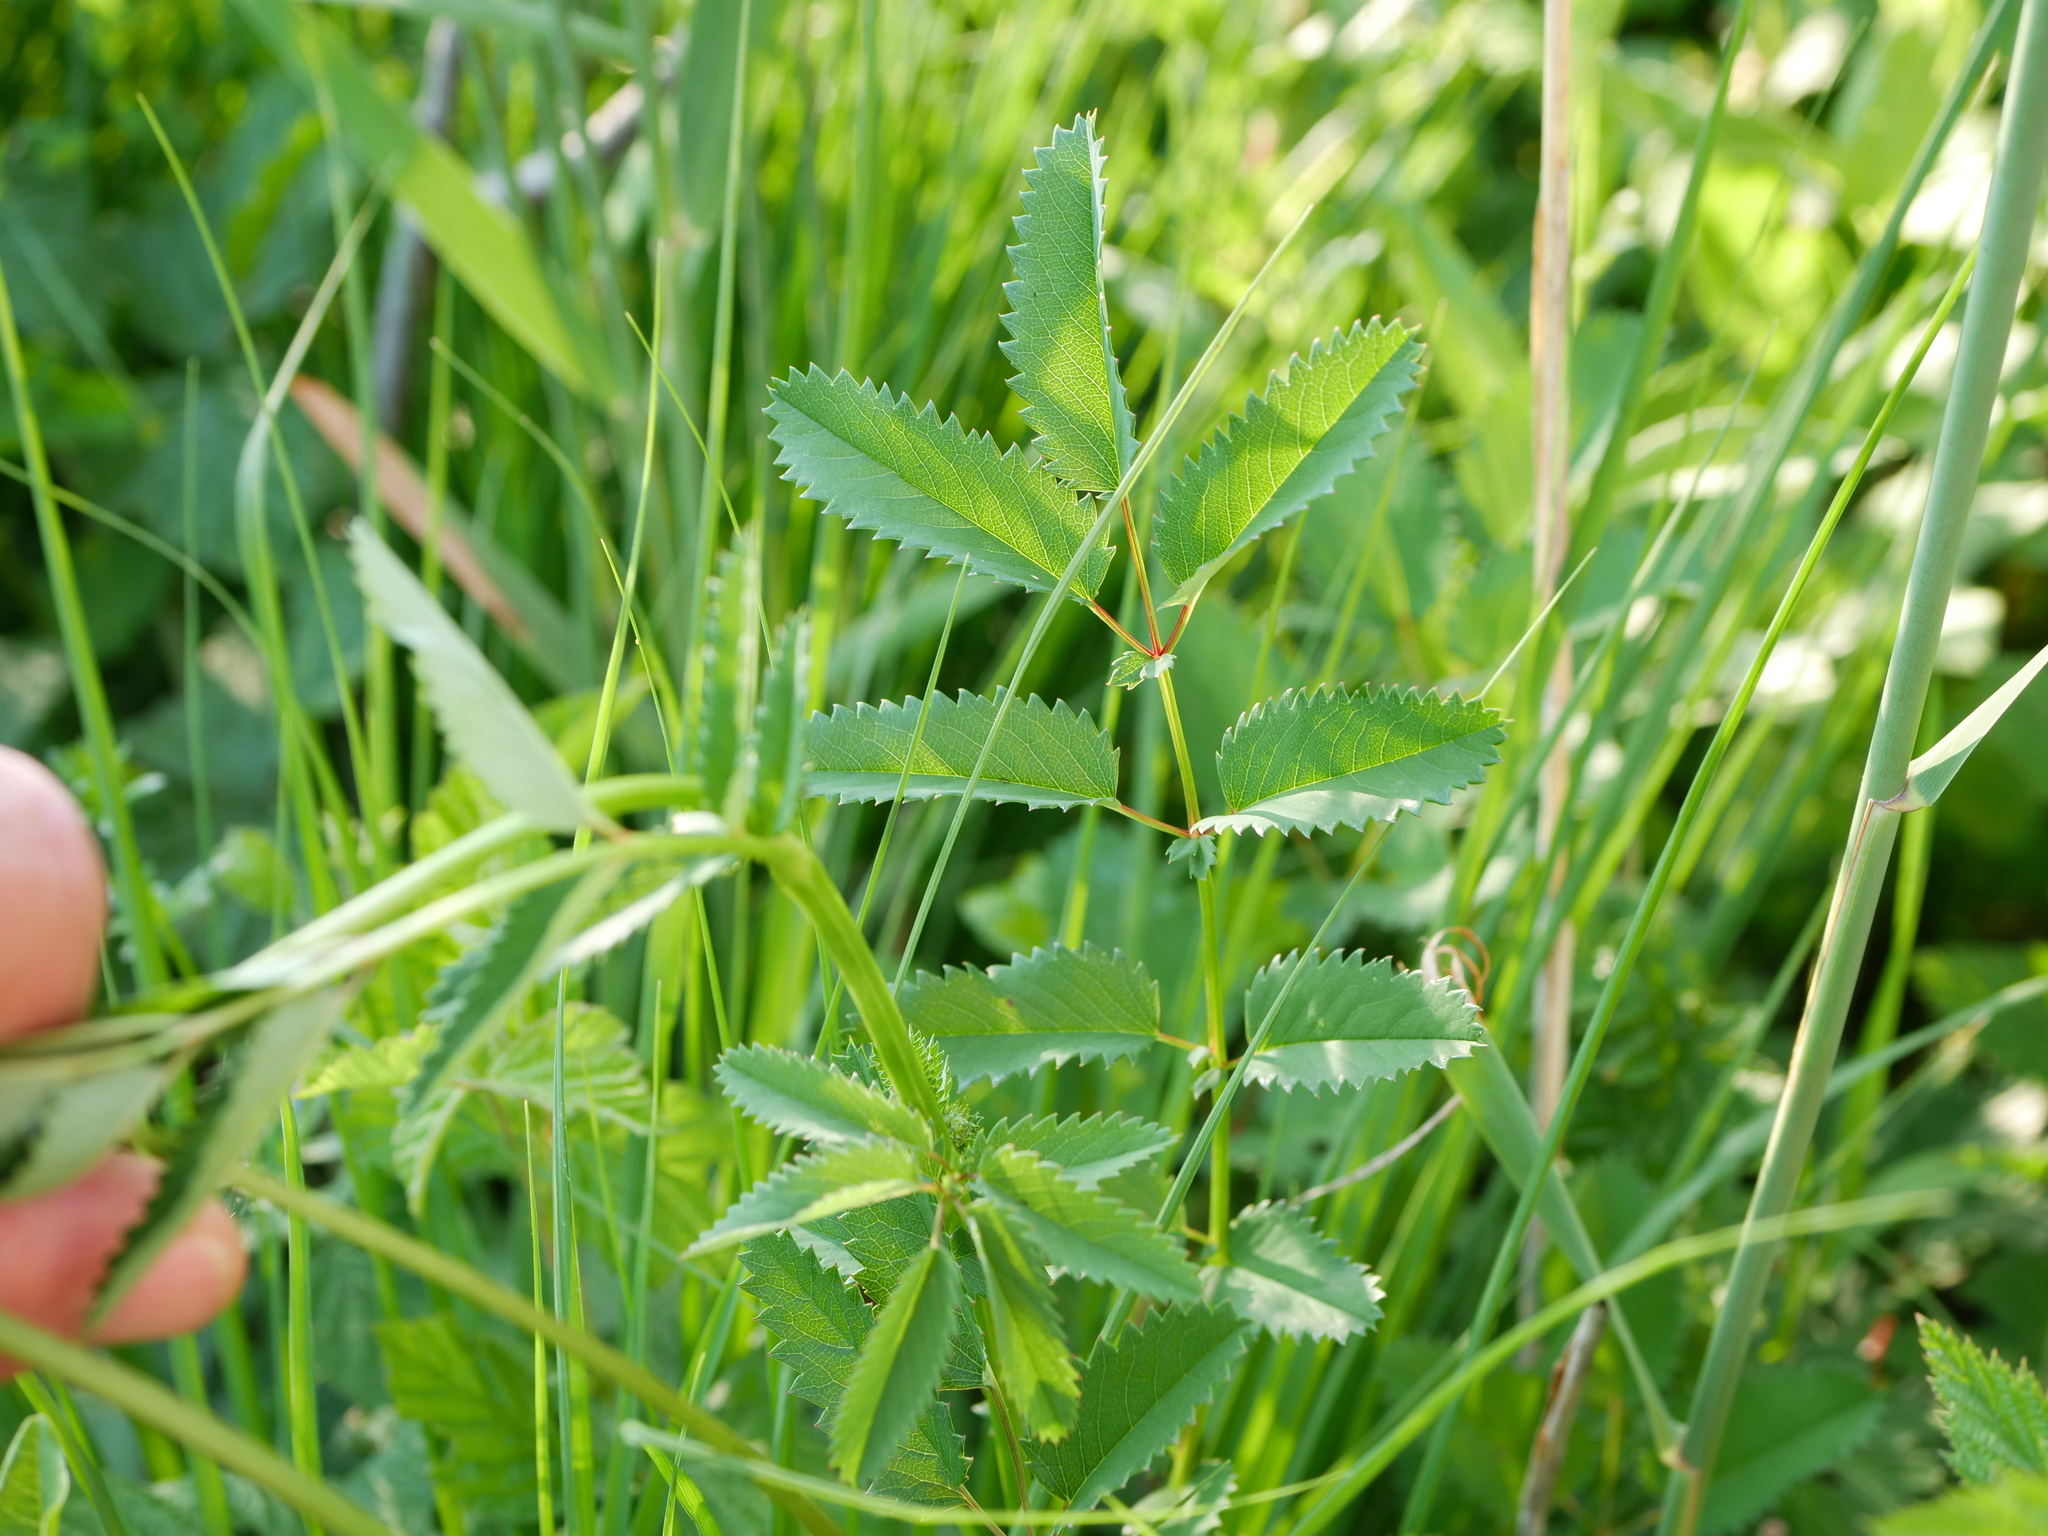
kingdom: Plantae
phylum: Tracheophyta
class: Magnoliopsida
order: Rosales
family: Rosaceae
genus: Sanguisorba
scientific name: Sanguisorba officinalis
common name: Great burnet
